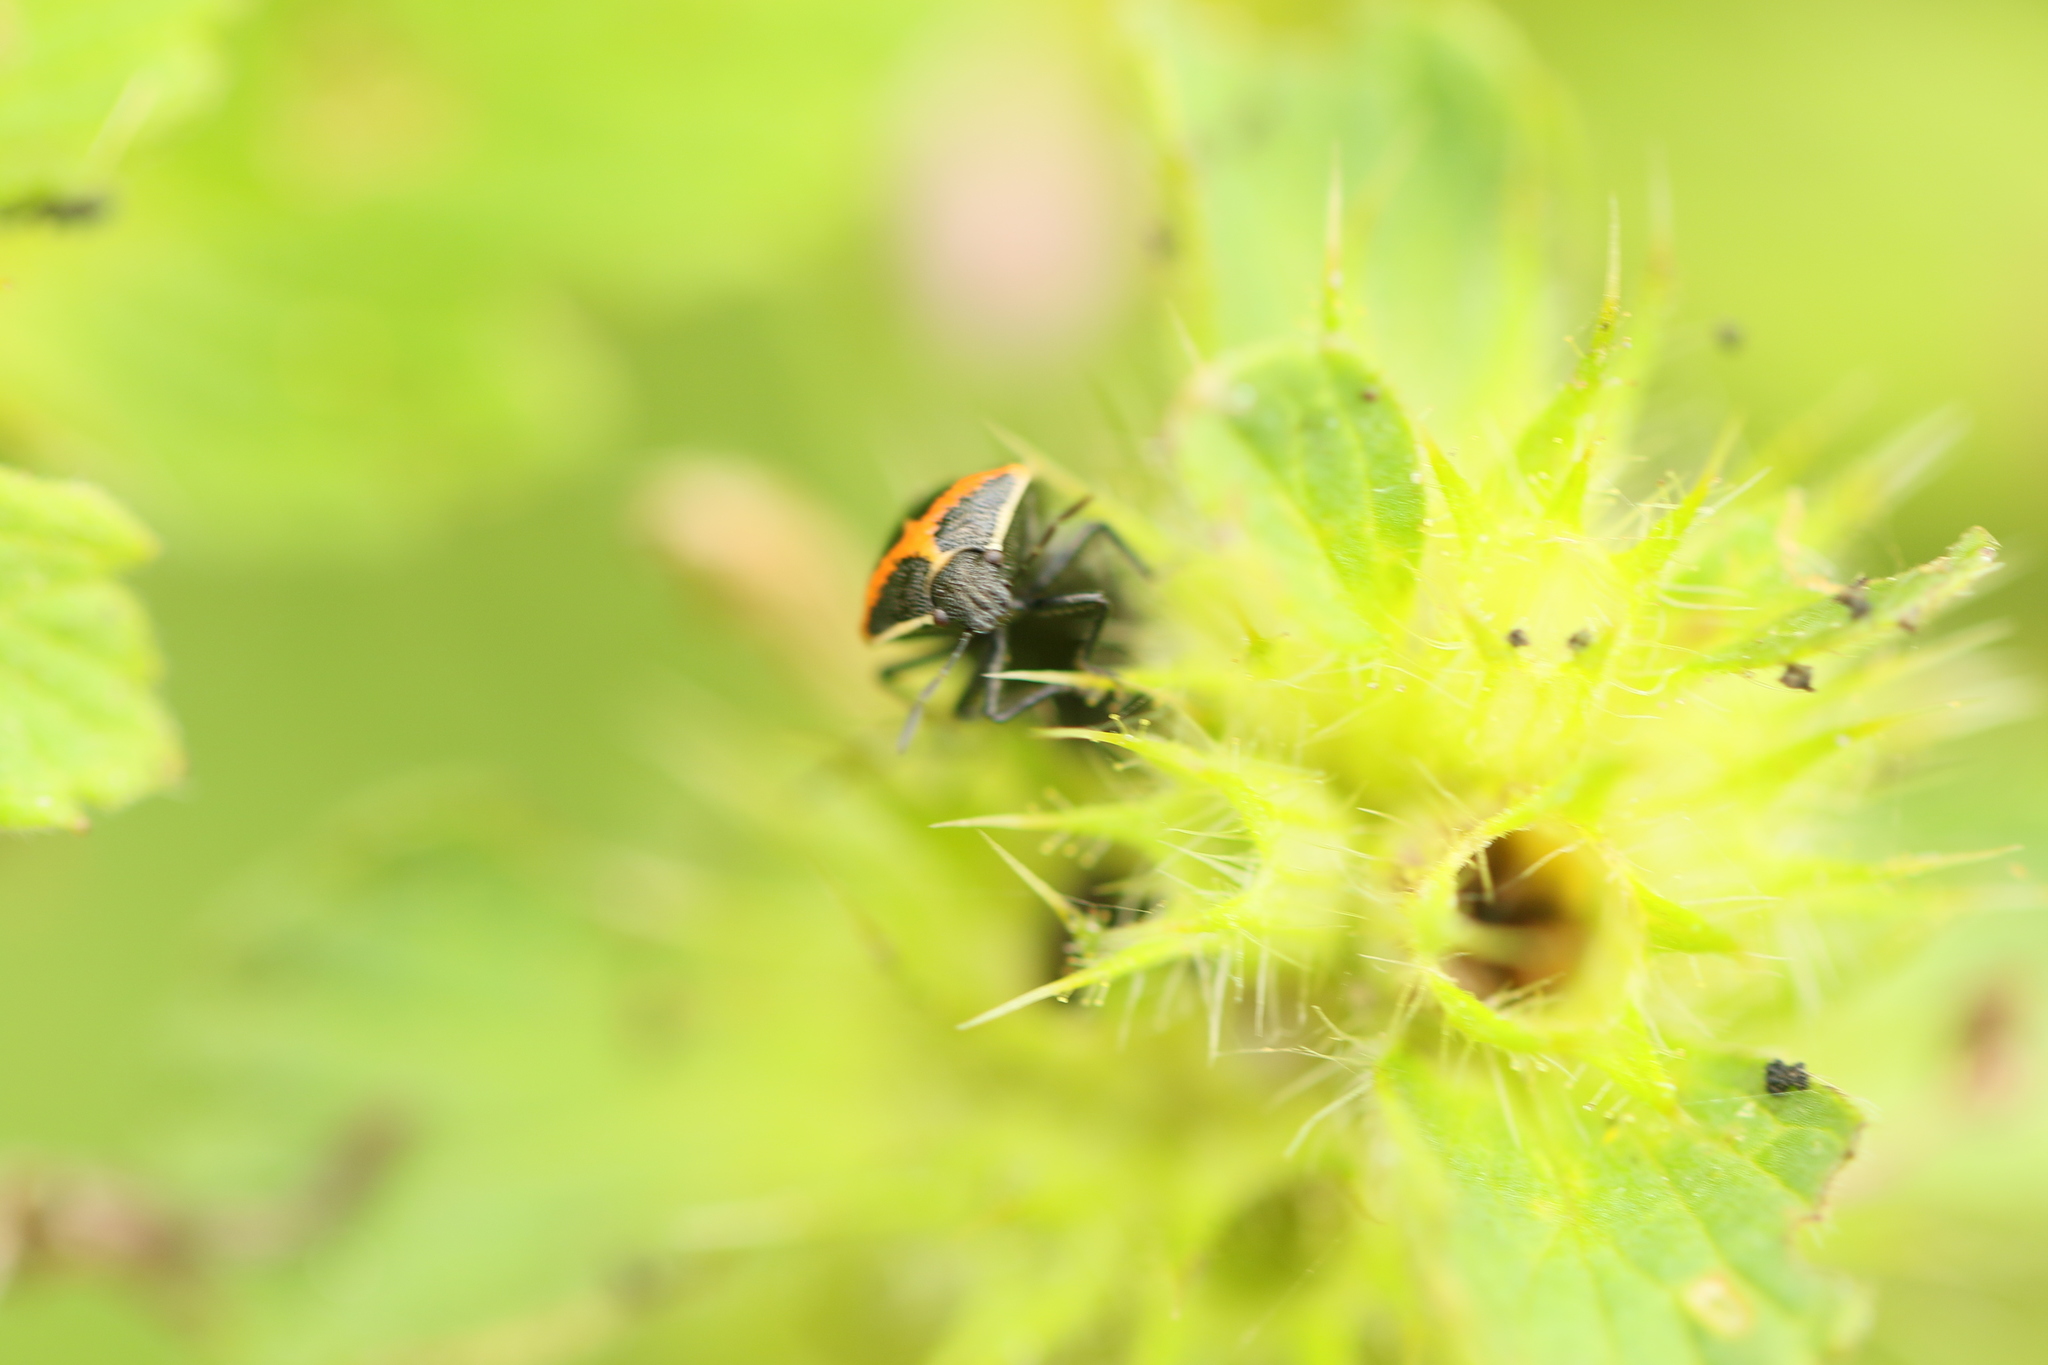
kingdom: Animalia
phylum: Arthropoda
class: Insecta
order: Hemiptera
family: Pentatomidae
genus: Cosmopepla
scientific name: Cosmopepla lintneriana
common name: Twice-stabbed stink bug
